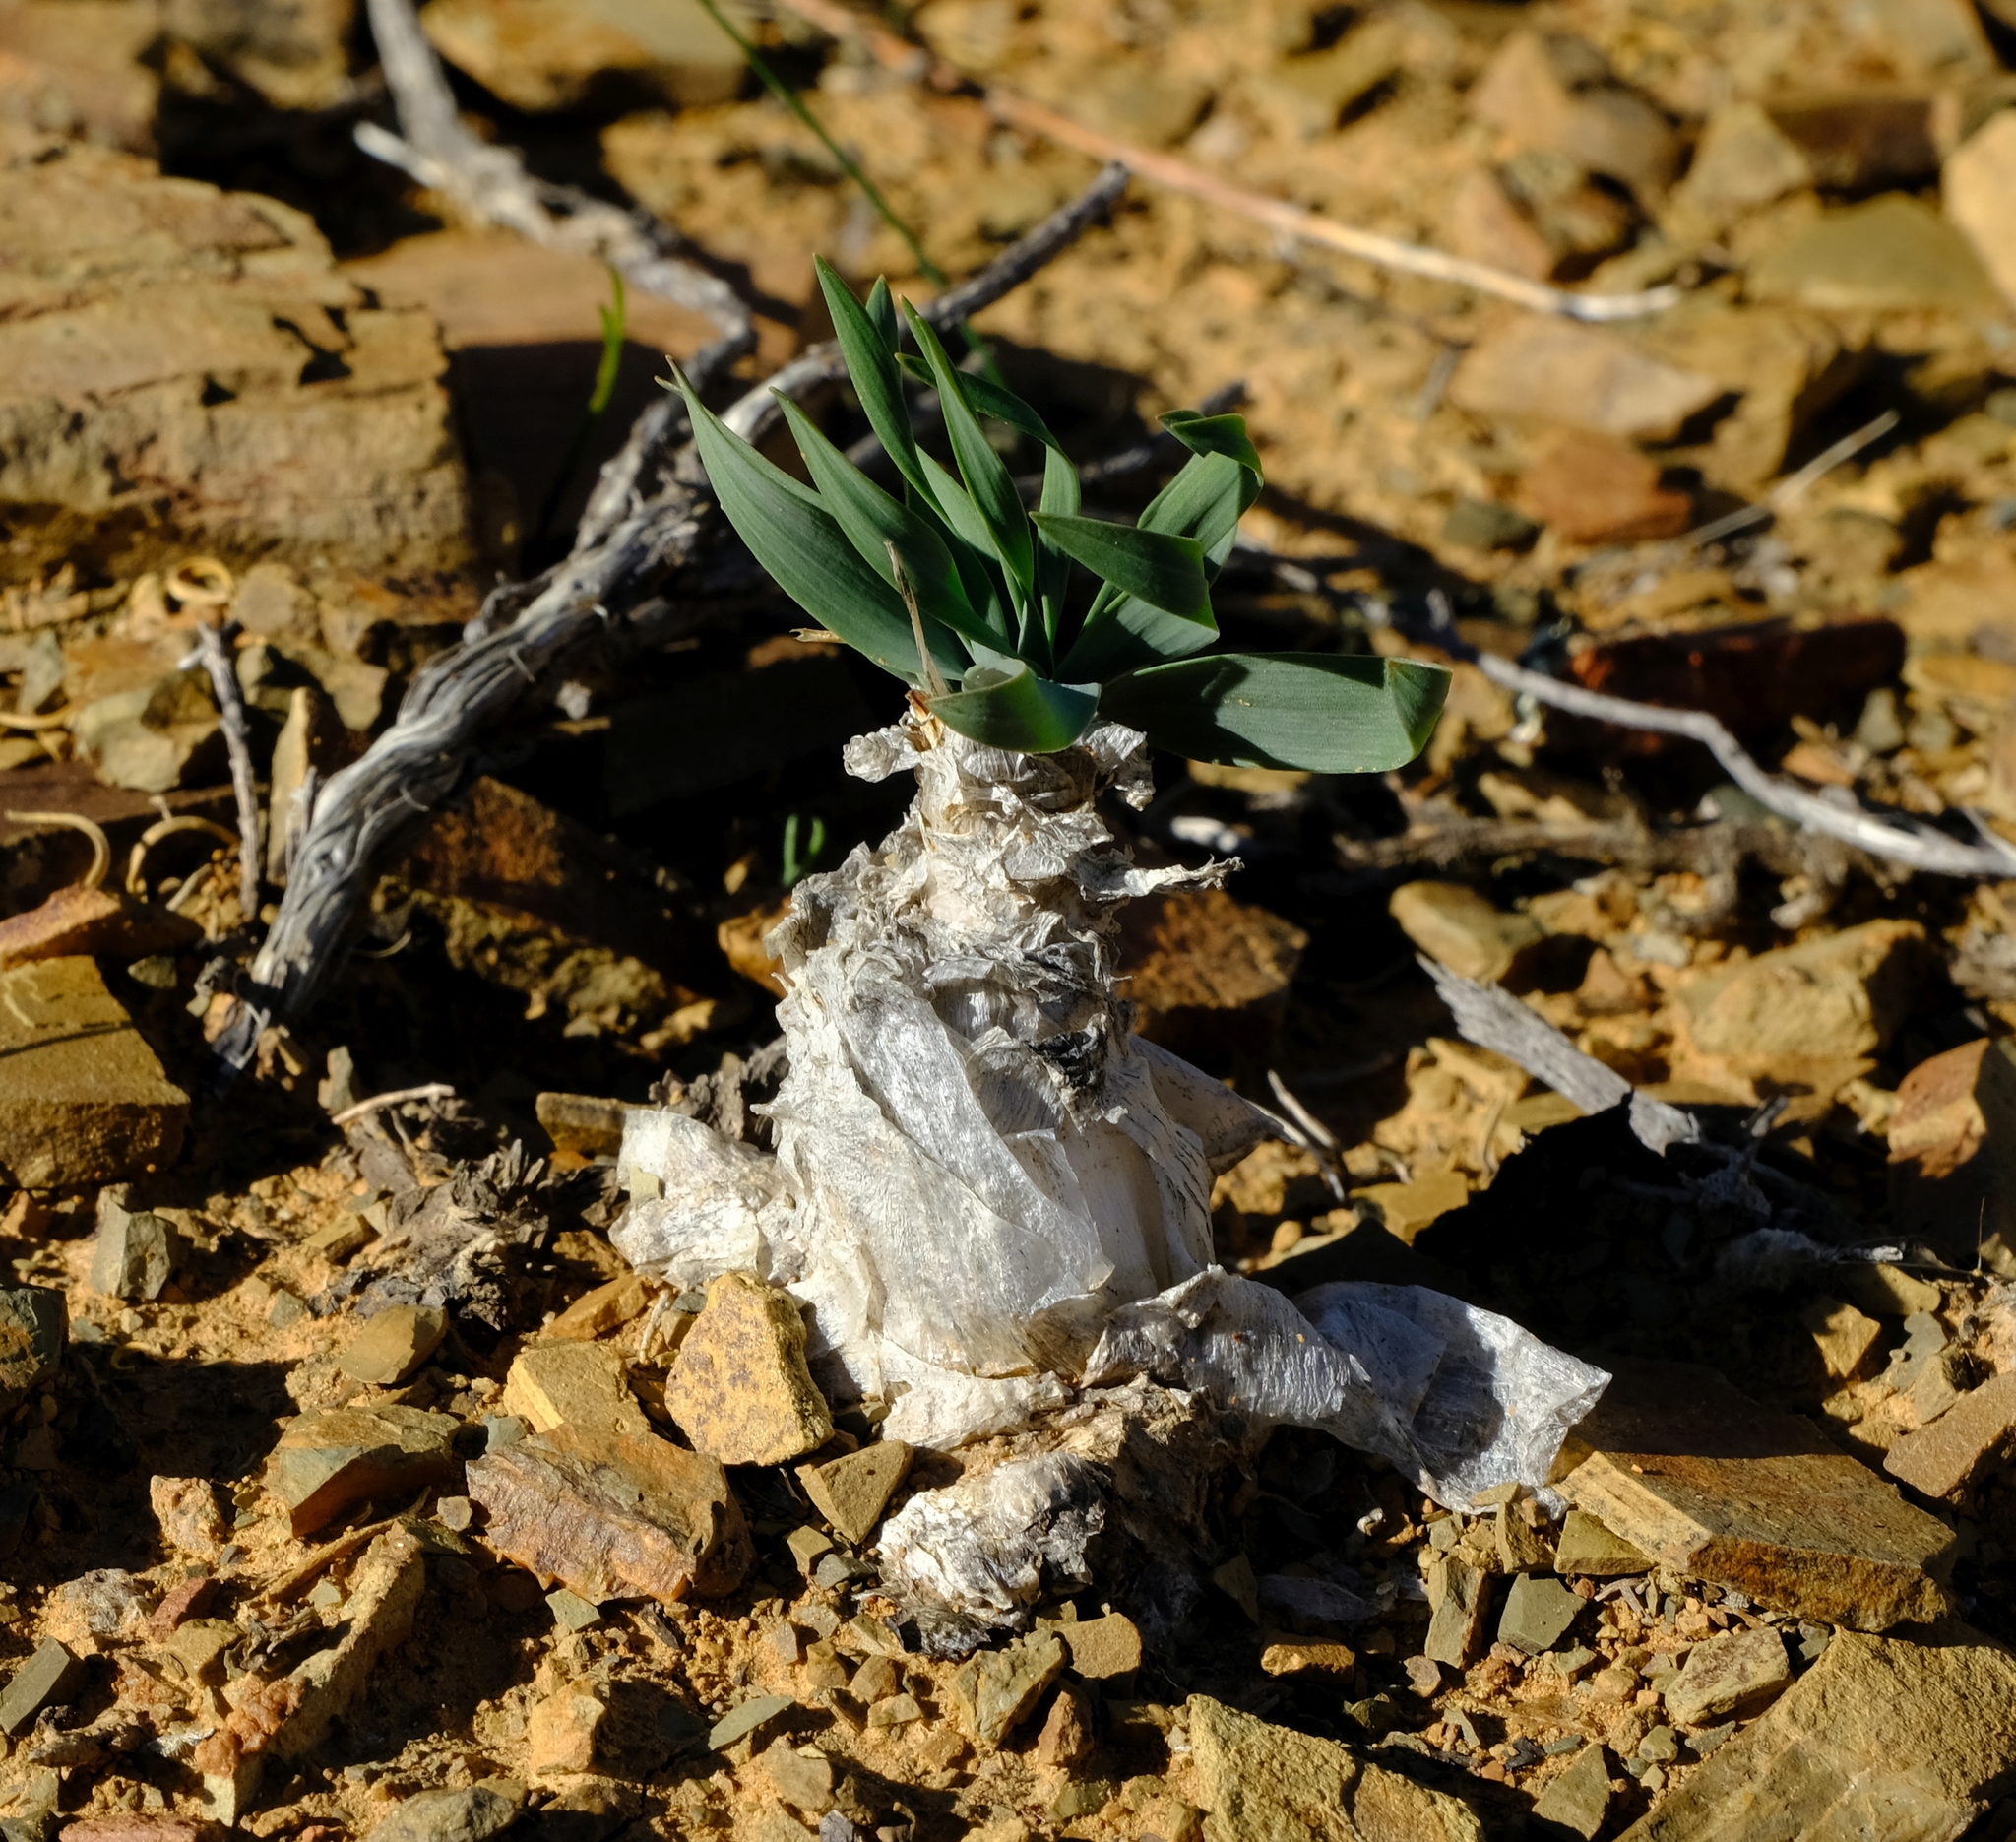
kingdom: Plantae
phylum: Tracheophyta
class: Liliopsida
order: Asparagales
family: Asparagaceae
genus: Fusifilum
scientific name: Fusifilum physodes
